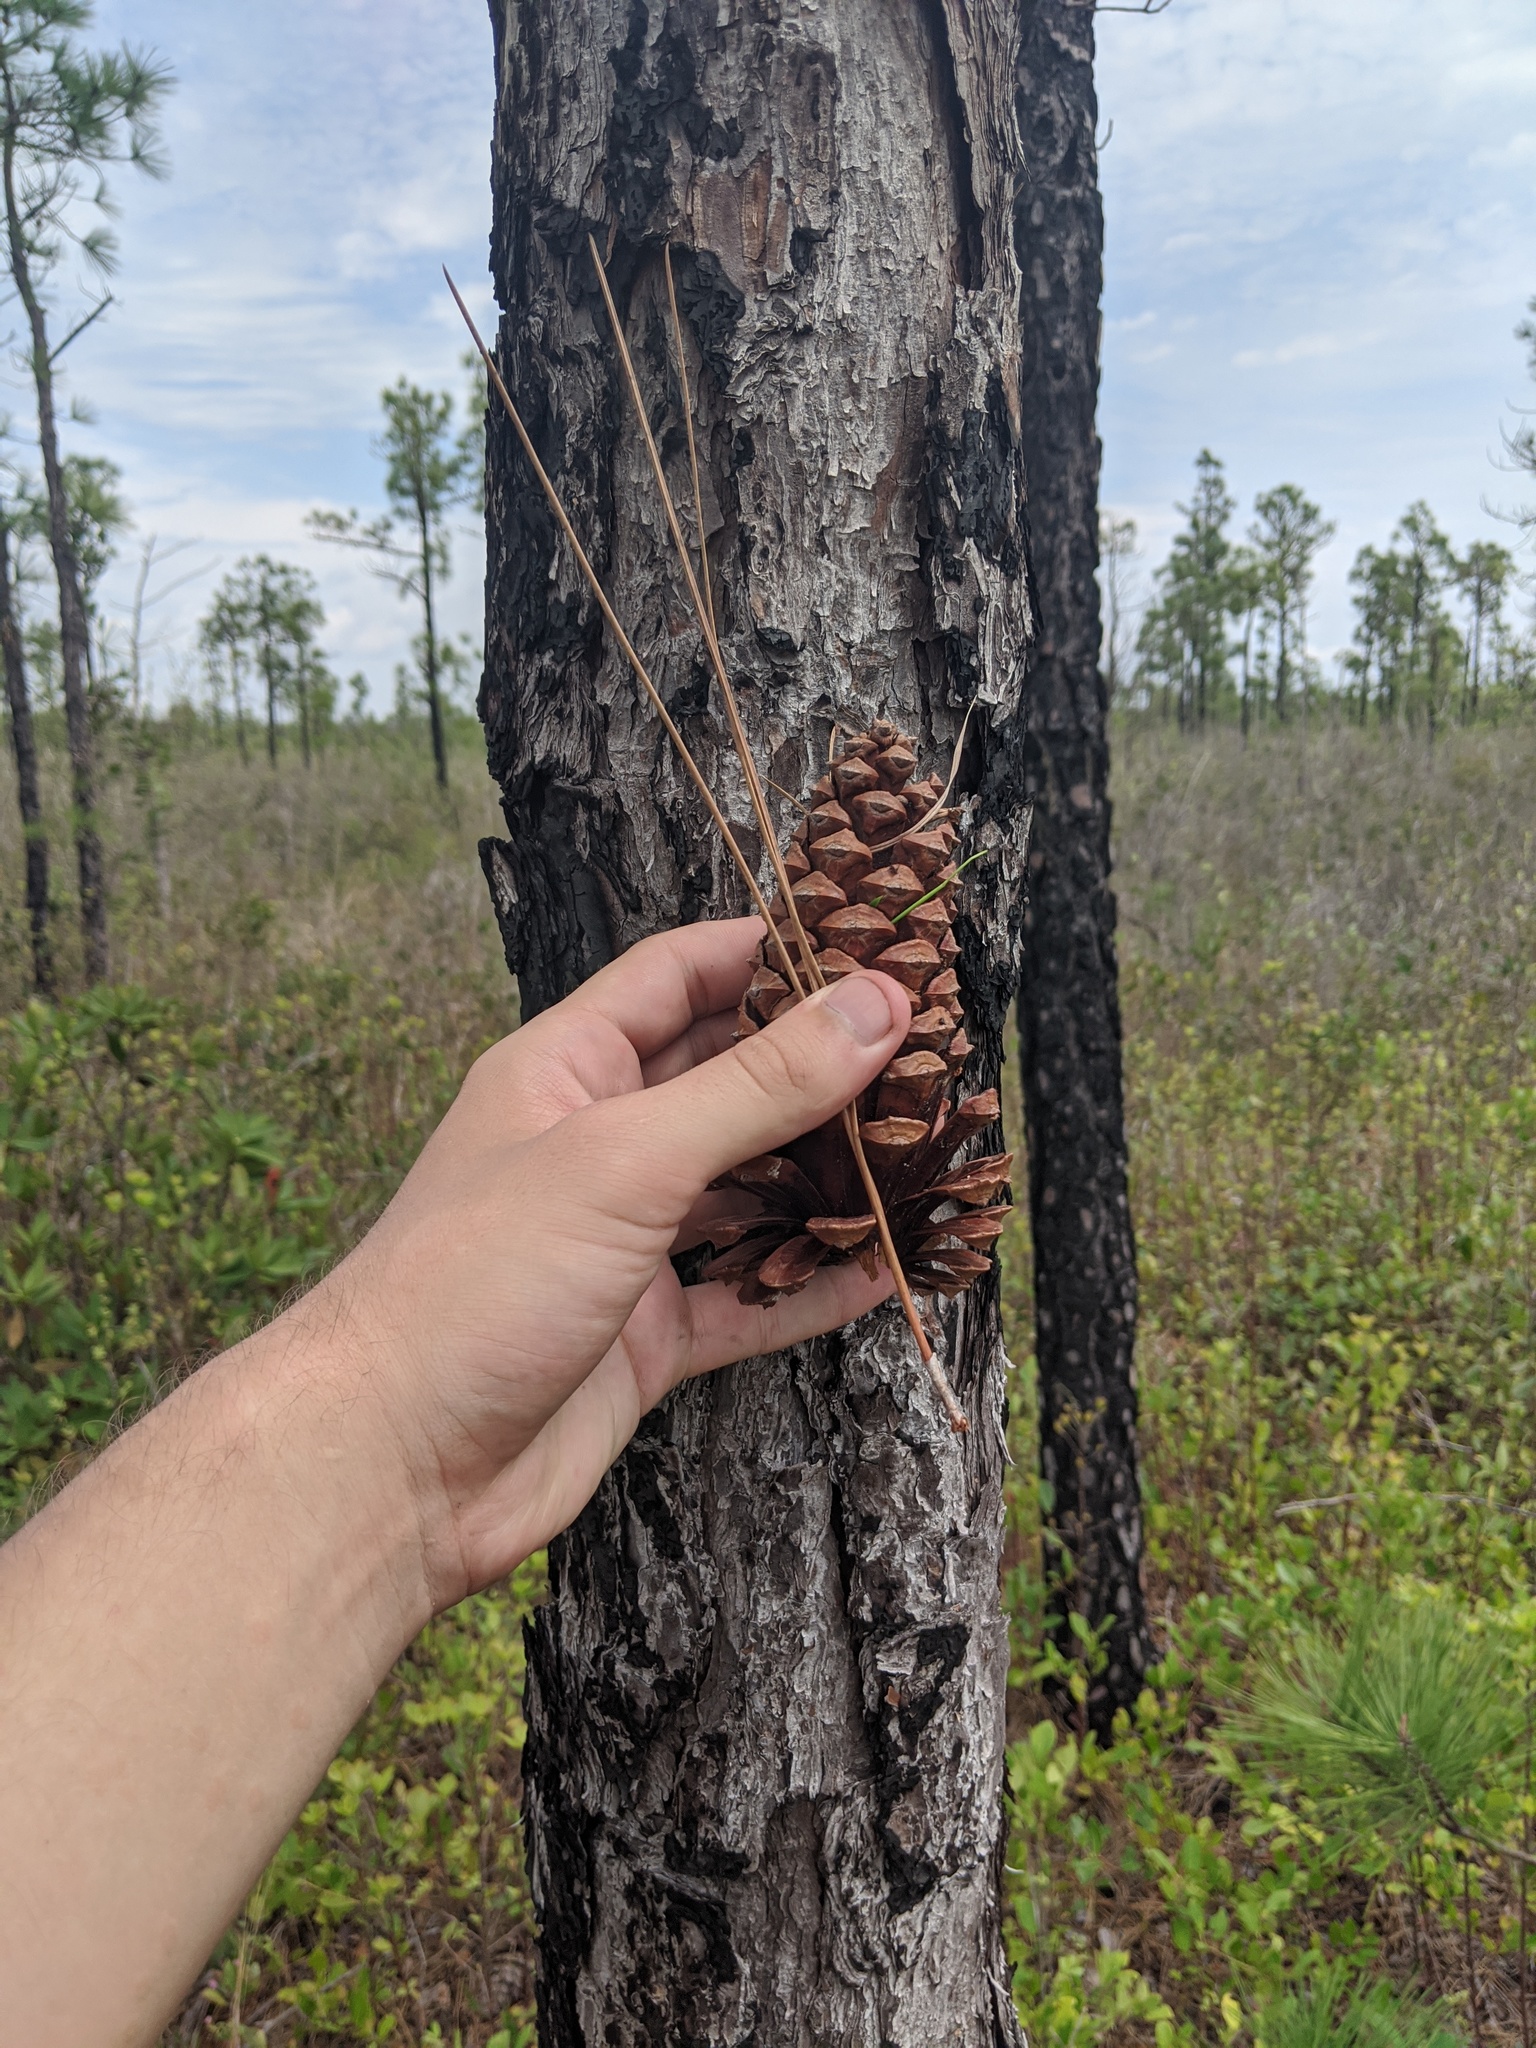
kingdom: Plantae
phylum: Tracheophyta
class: Pinopsida
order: Pinales
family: Pinaceae
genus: Pinus
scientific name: Pinus palustris
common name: Longleaf pine
